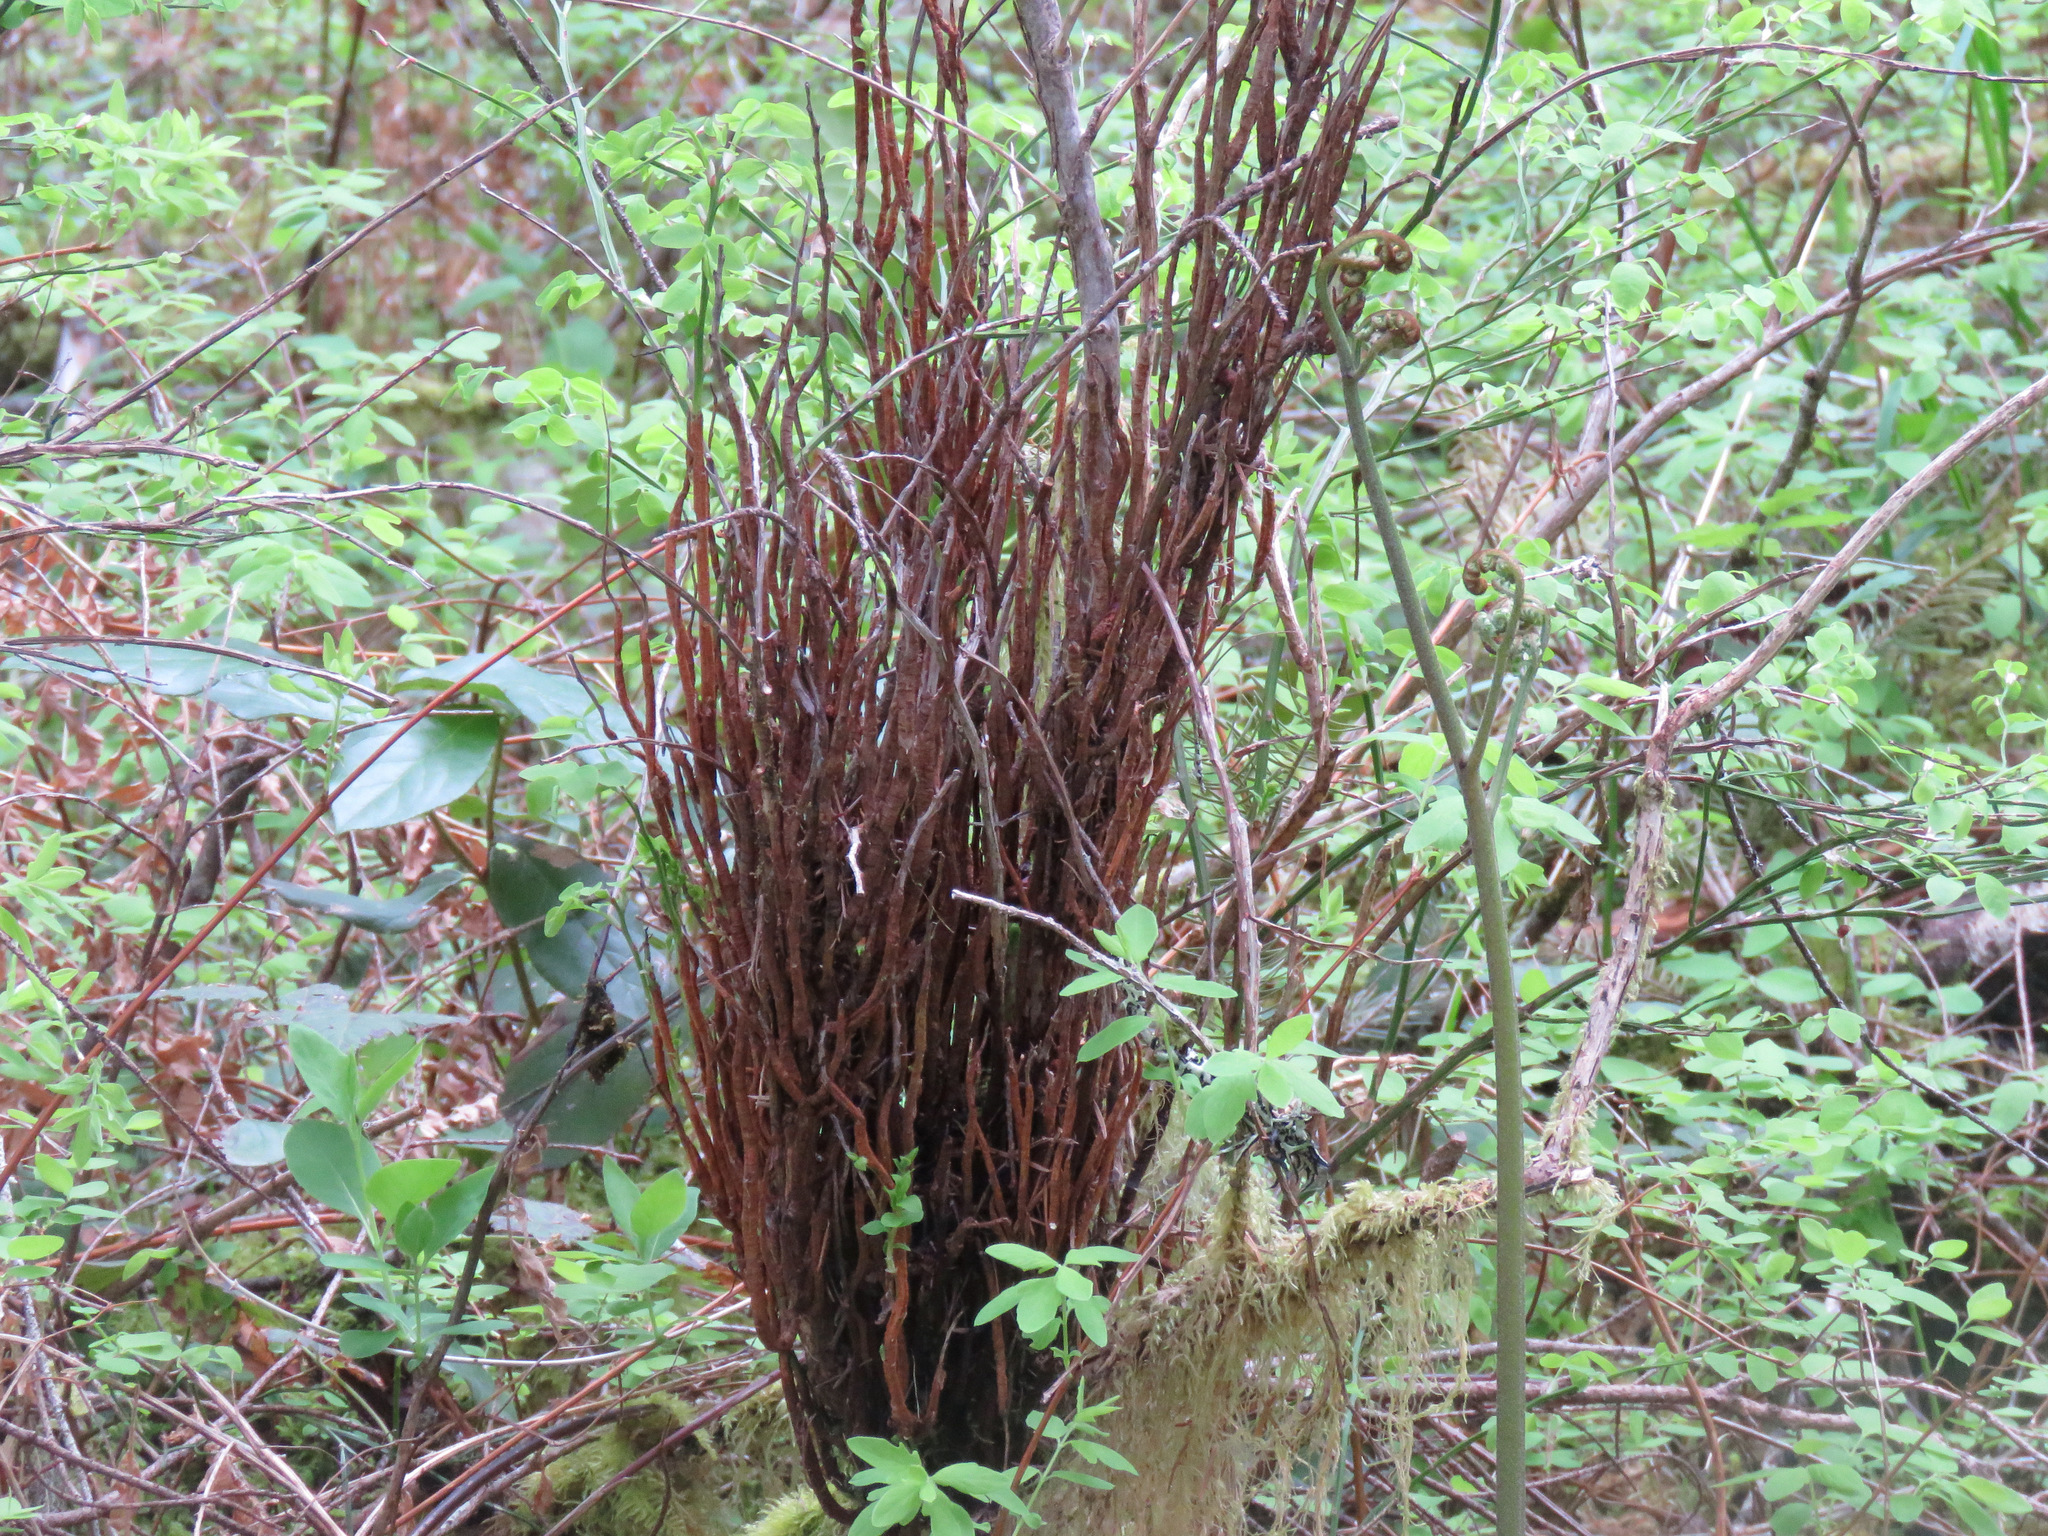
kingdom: Fungi
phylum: Basidiomycota
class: Pucciniomycetes
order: Pucciniales
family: Pucciniastraceae
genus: Calyptospora
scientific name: Calyptospora
